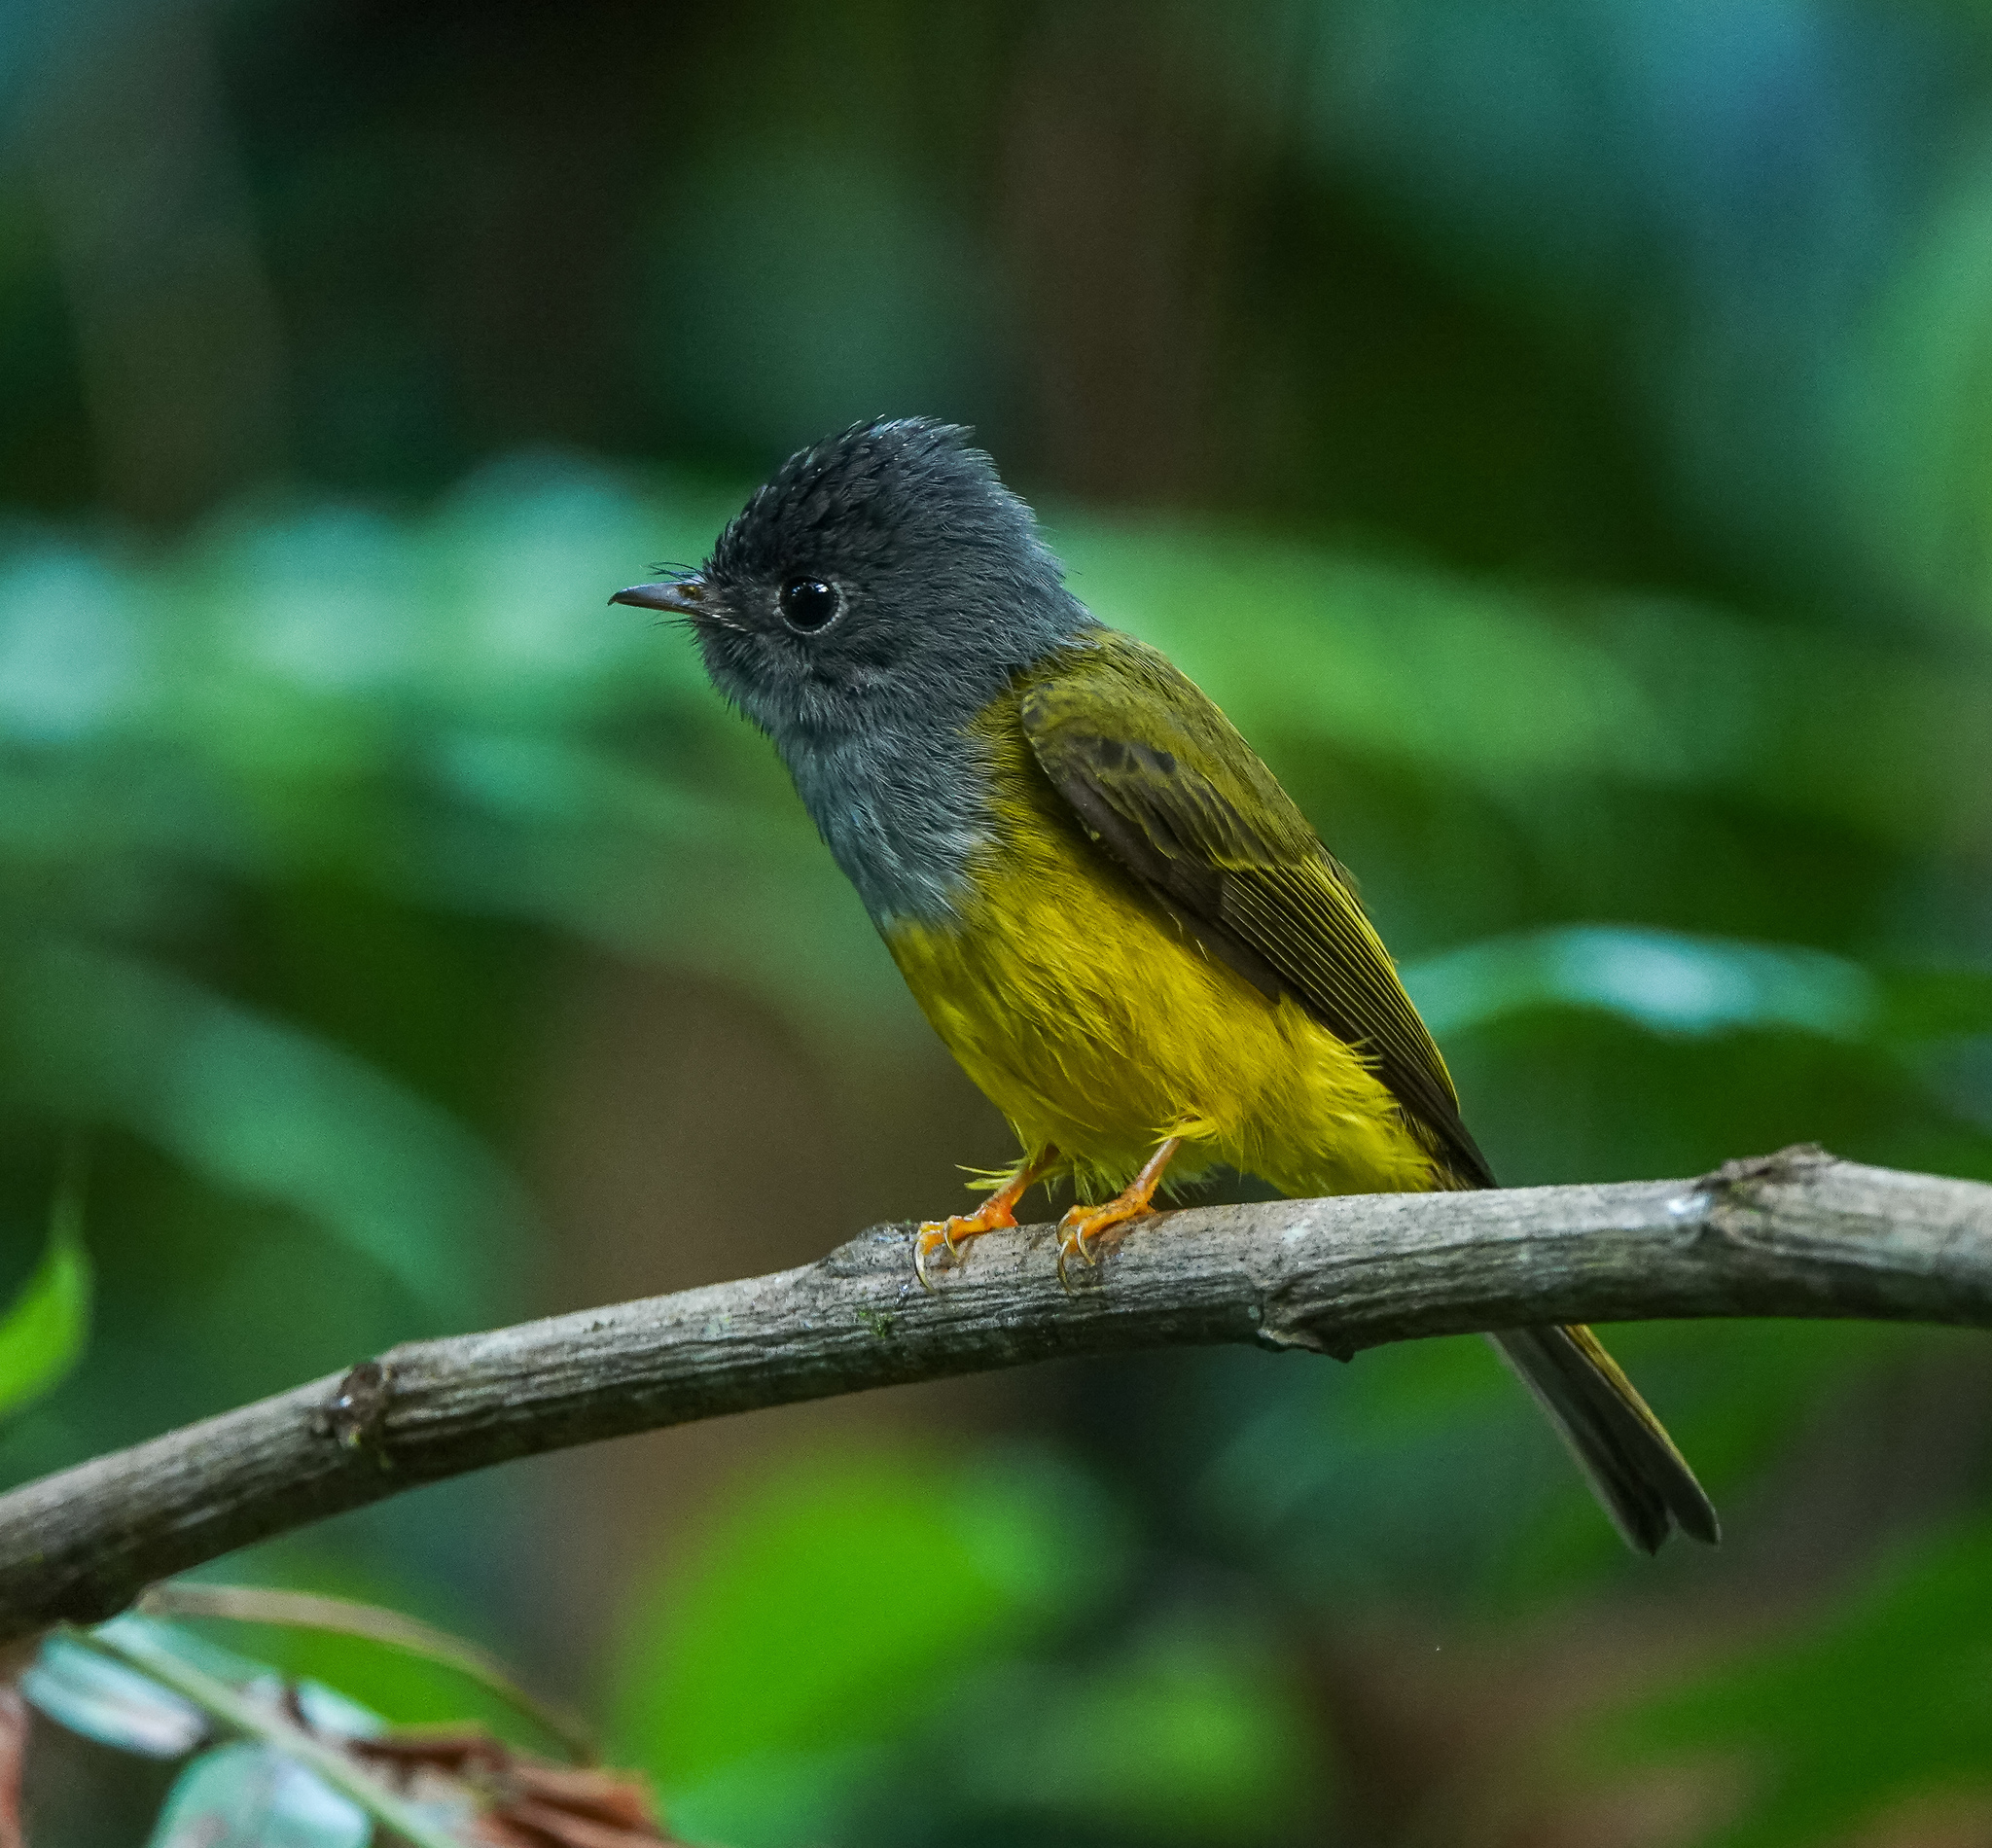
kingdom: Animalia
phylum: Chordata
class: Aves
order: Passeriformes
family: Stenostiridae
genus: Culicicapa
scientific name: Culicicapa ceylonensis
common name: Grey-headed canary-flycatcher
